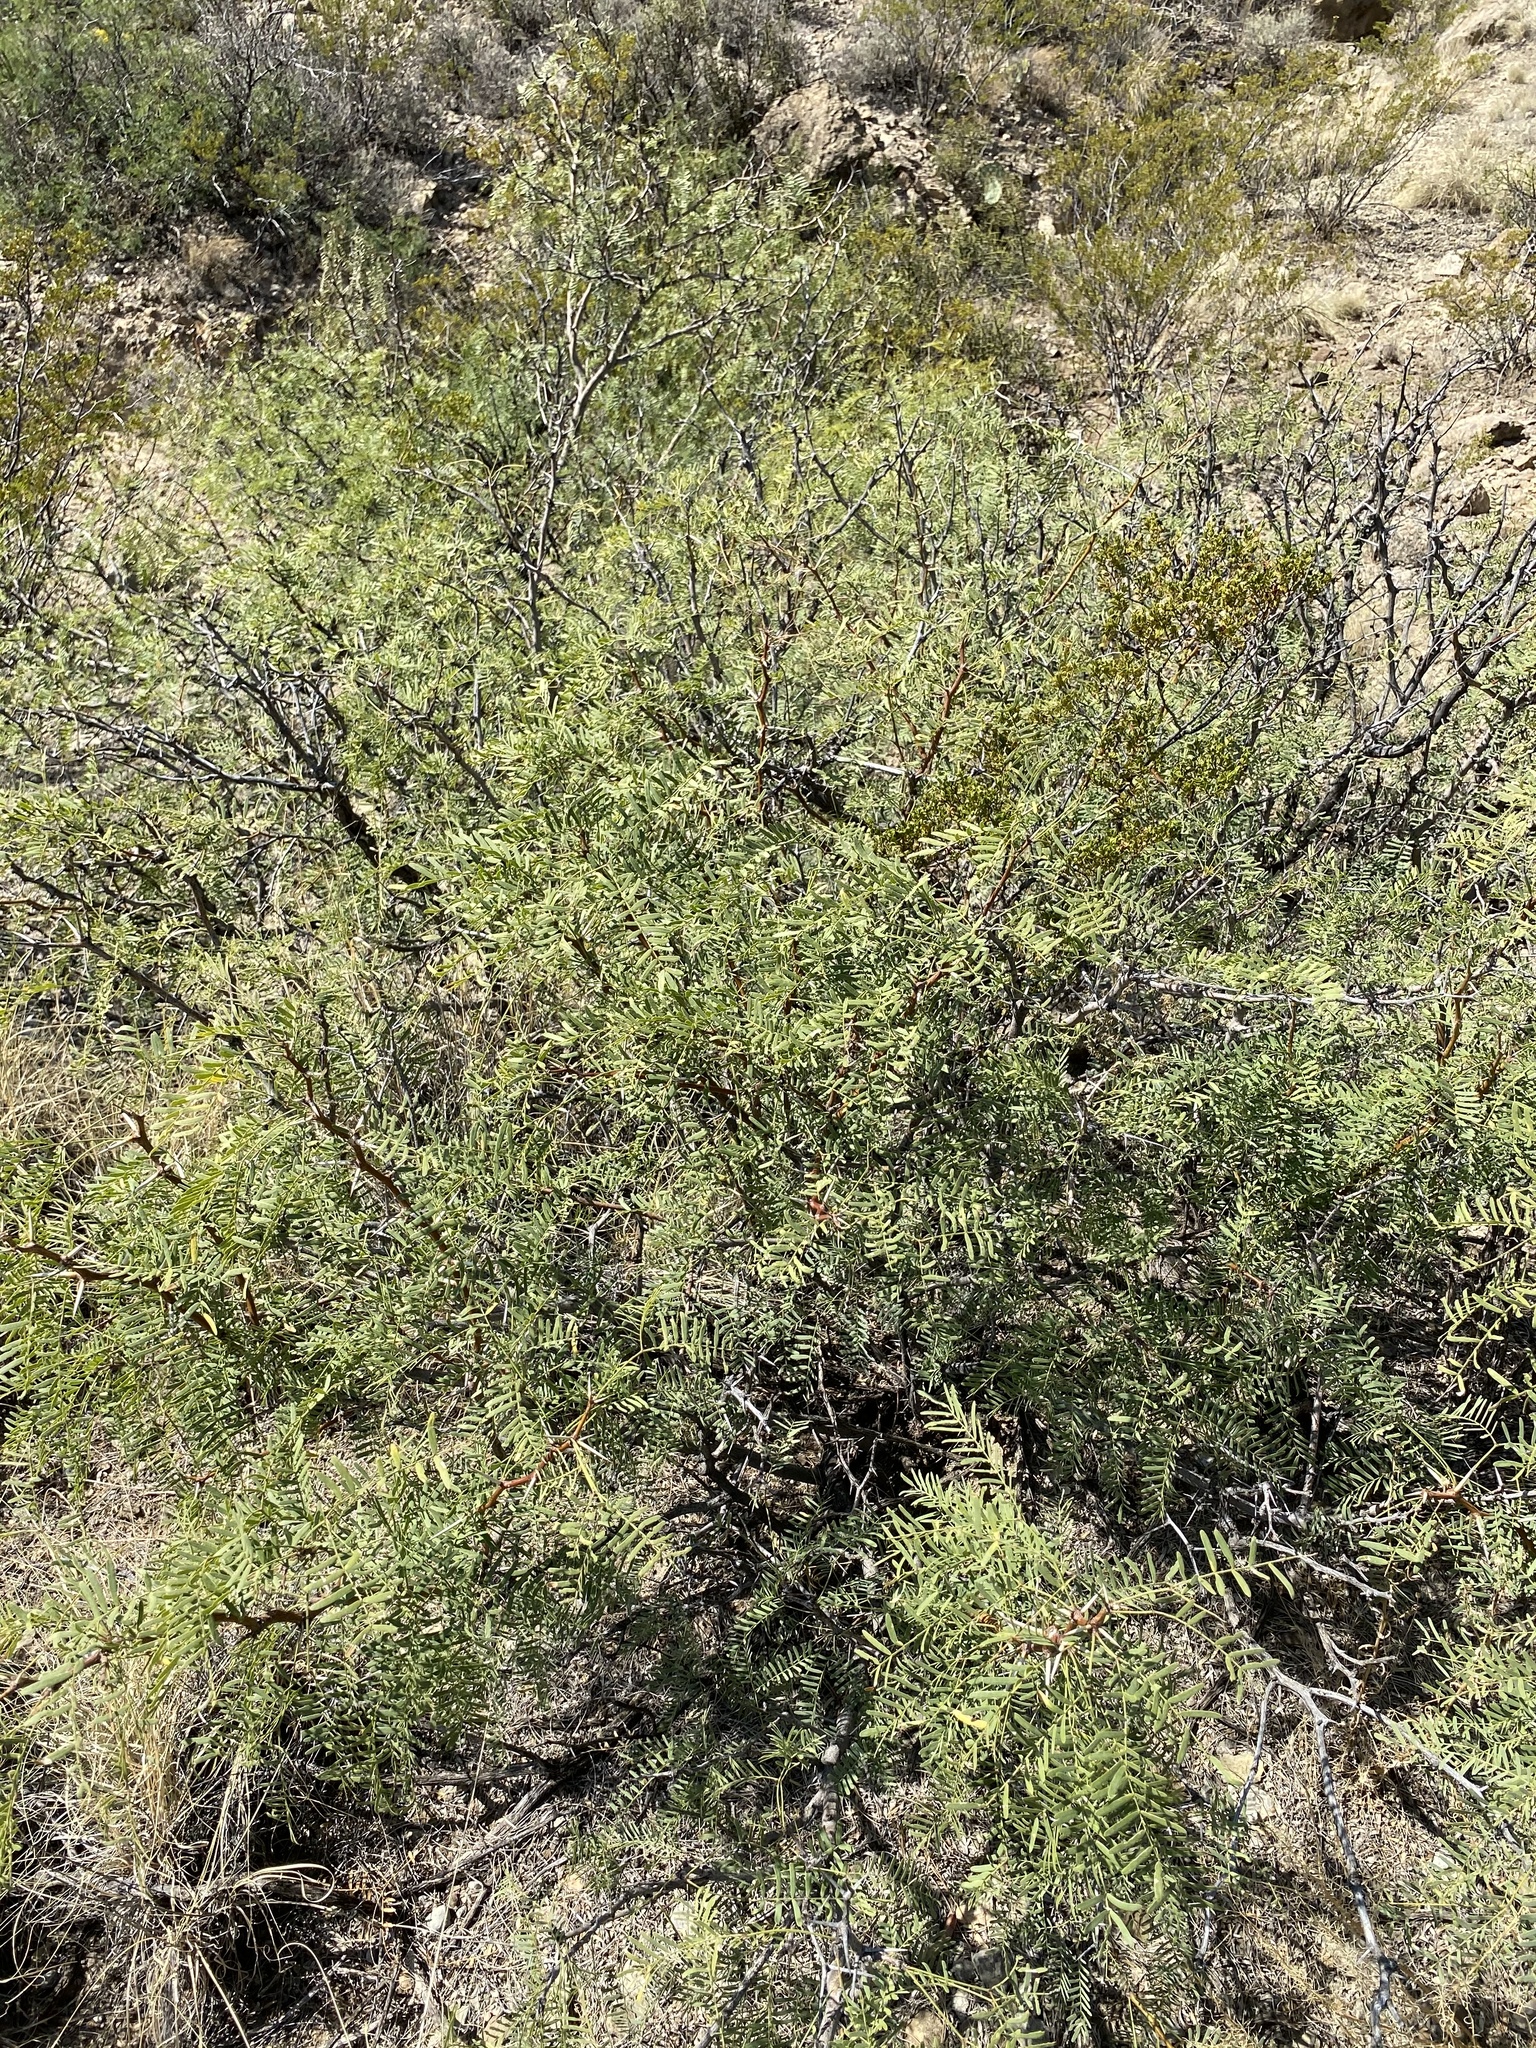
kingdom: Plantae
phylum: Tracheophyta
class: Magnoliopsida
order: Fabales
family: Fabaceae
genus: Prosopis
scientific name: Prosopis glandulosa
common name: Honey mesquite
